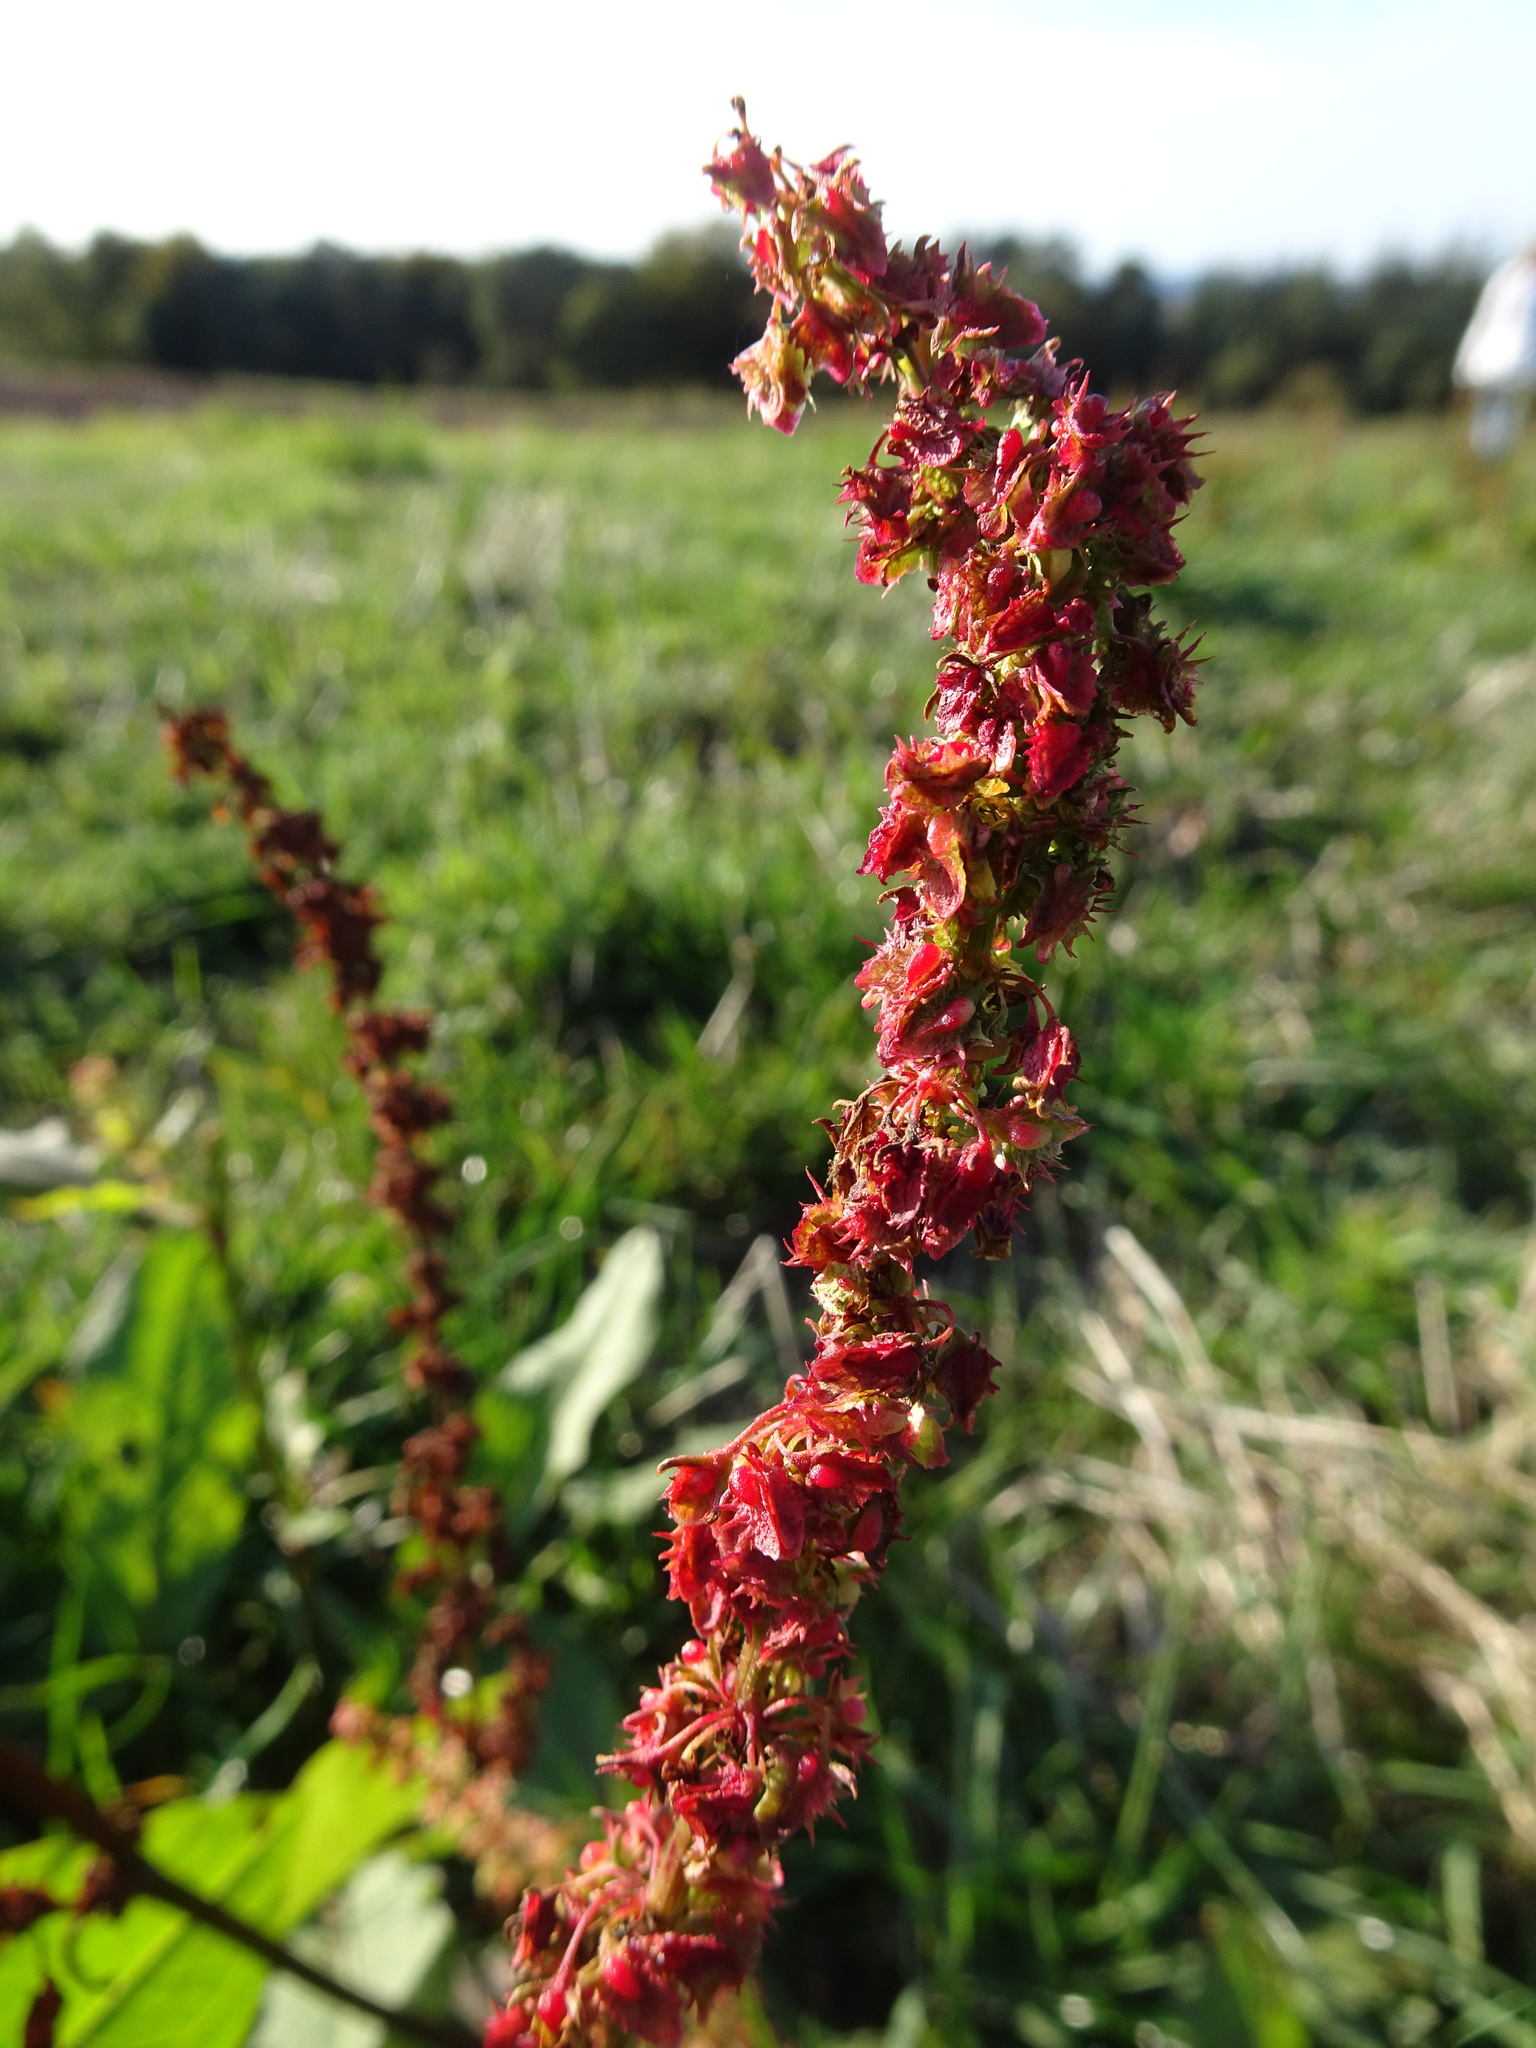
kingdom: Plantae
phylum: Tracheophyta
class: Magnoliopsida
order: Caryophyllales
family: Polygonaceae
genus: Rumex
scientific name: Rumex obtusifolius
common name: Bitter dock
